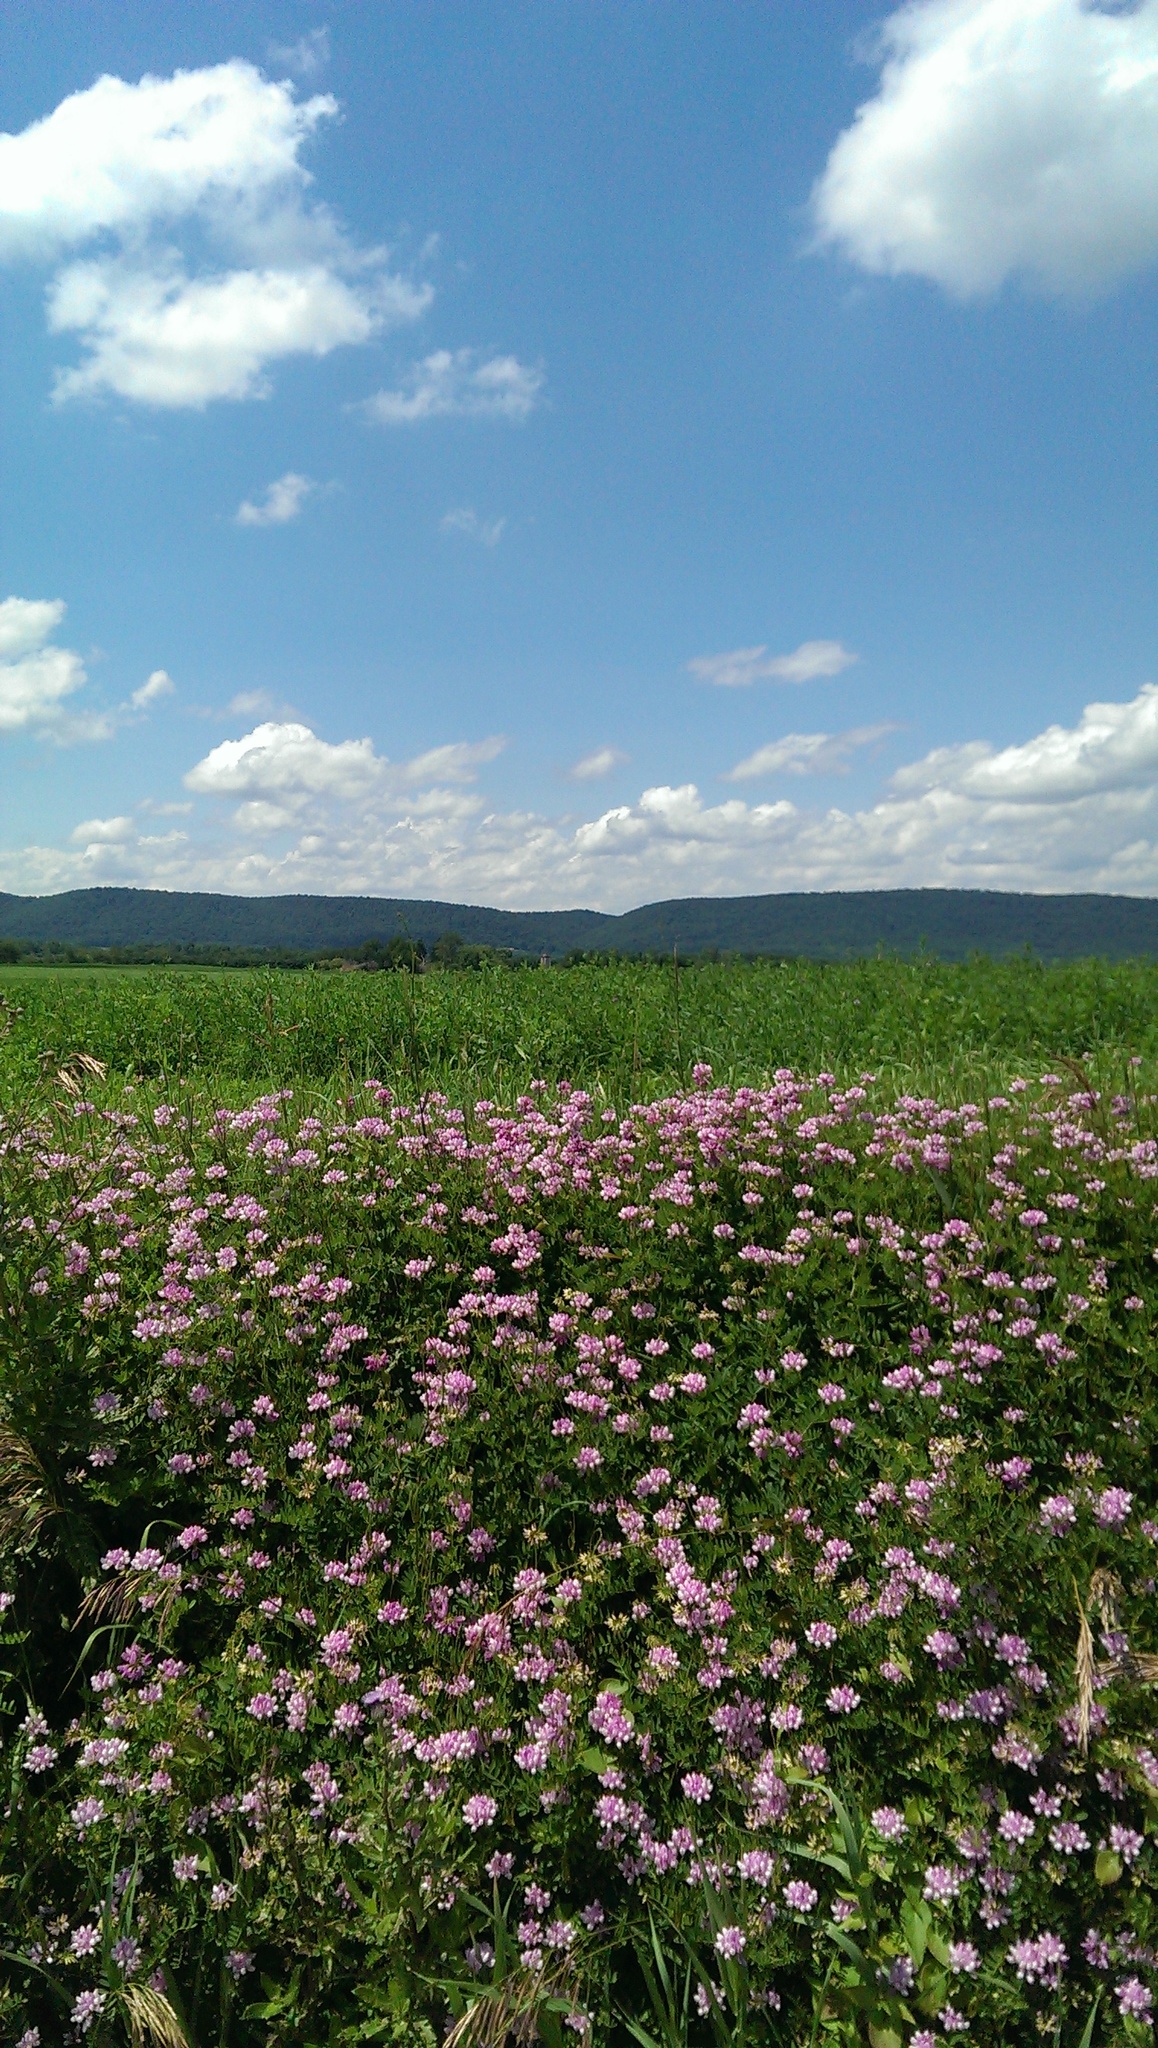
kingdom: Plantae
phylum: Tracheophyta
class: Magnoliopsida
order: Fabales
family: Fabaceae
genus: Coronilla
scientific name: Coronilla varia
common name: Crownvetch
